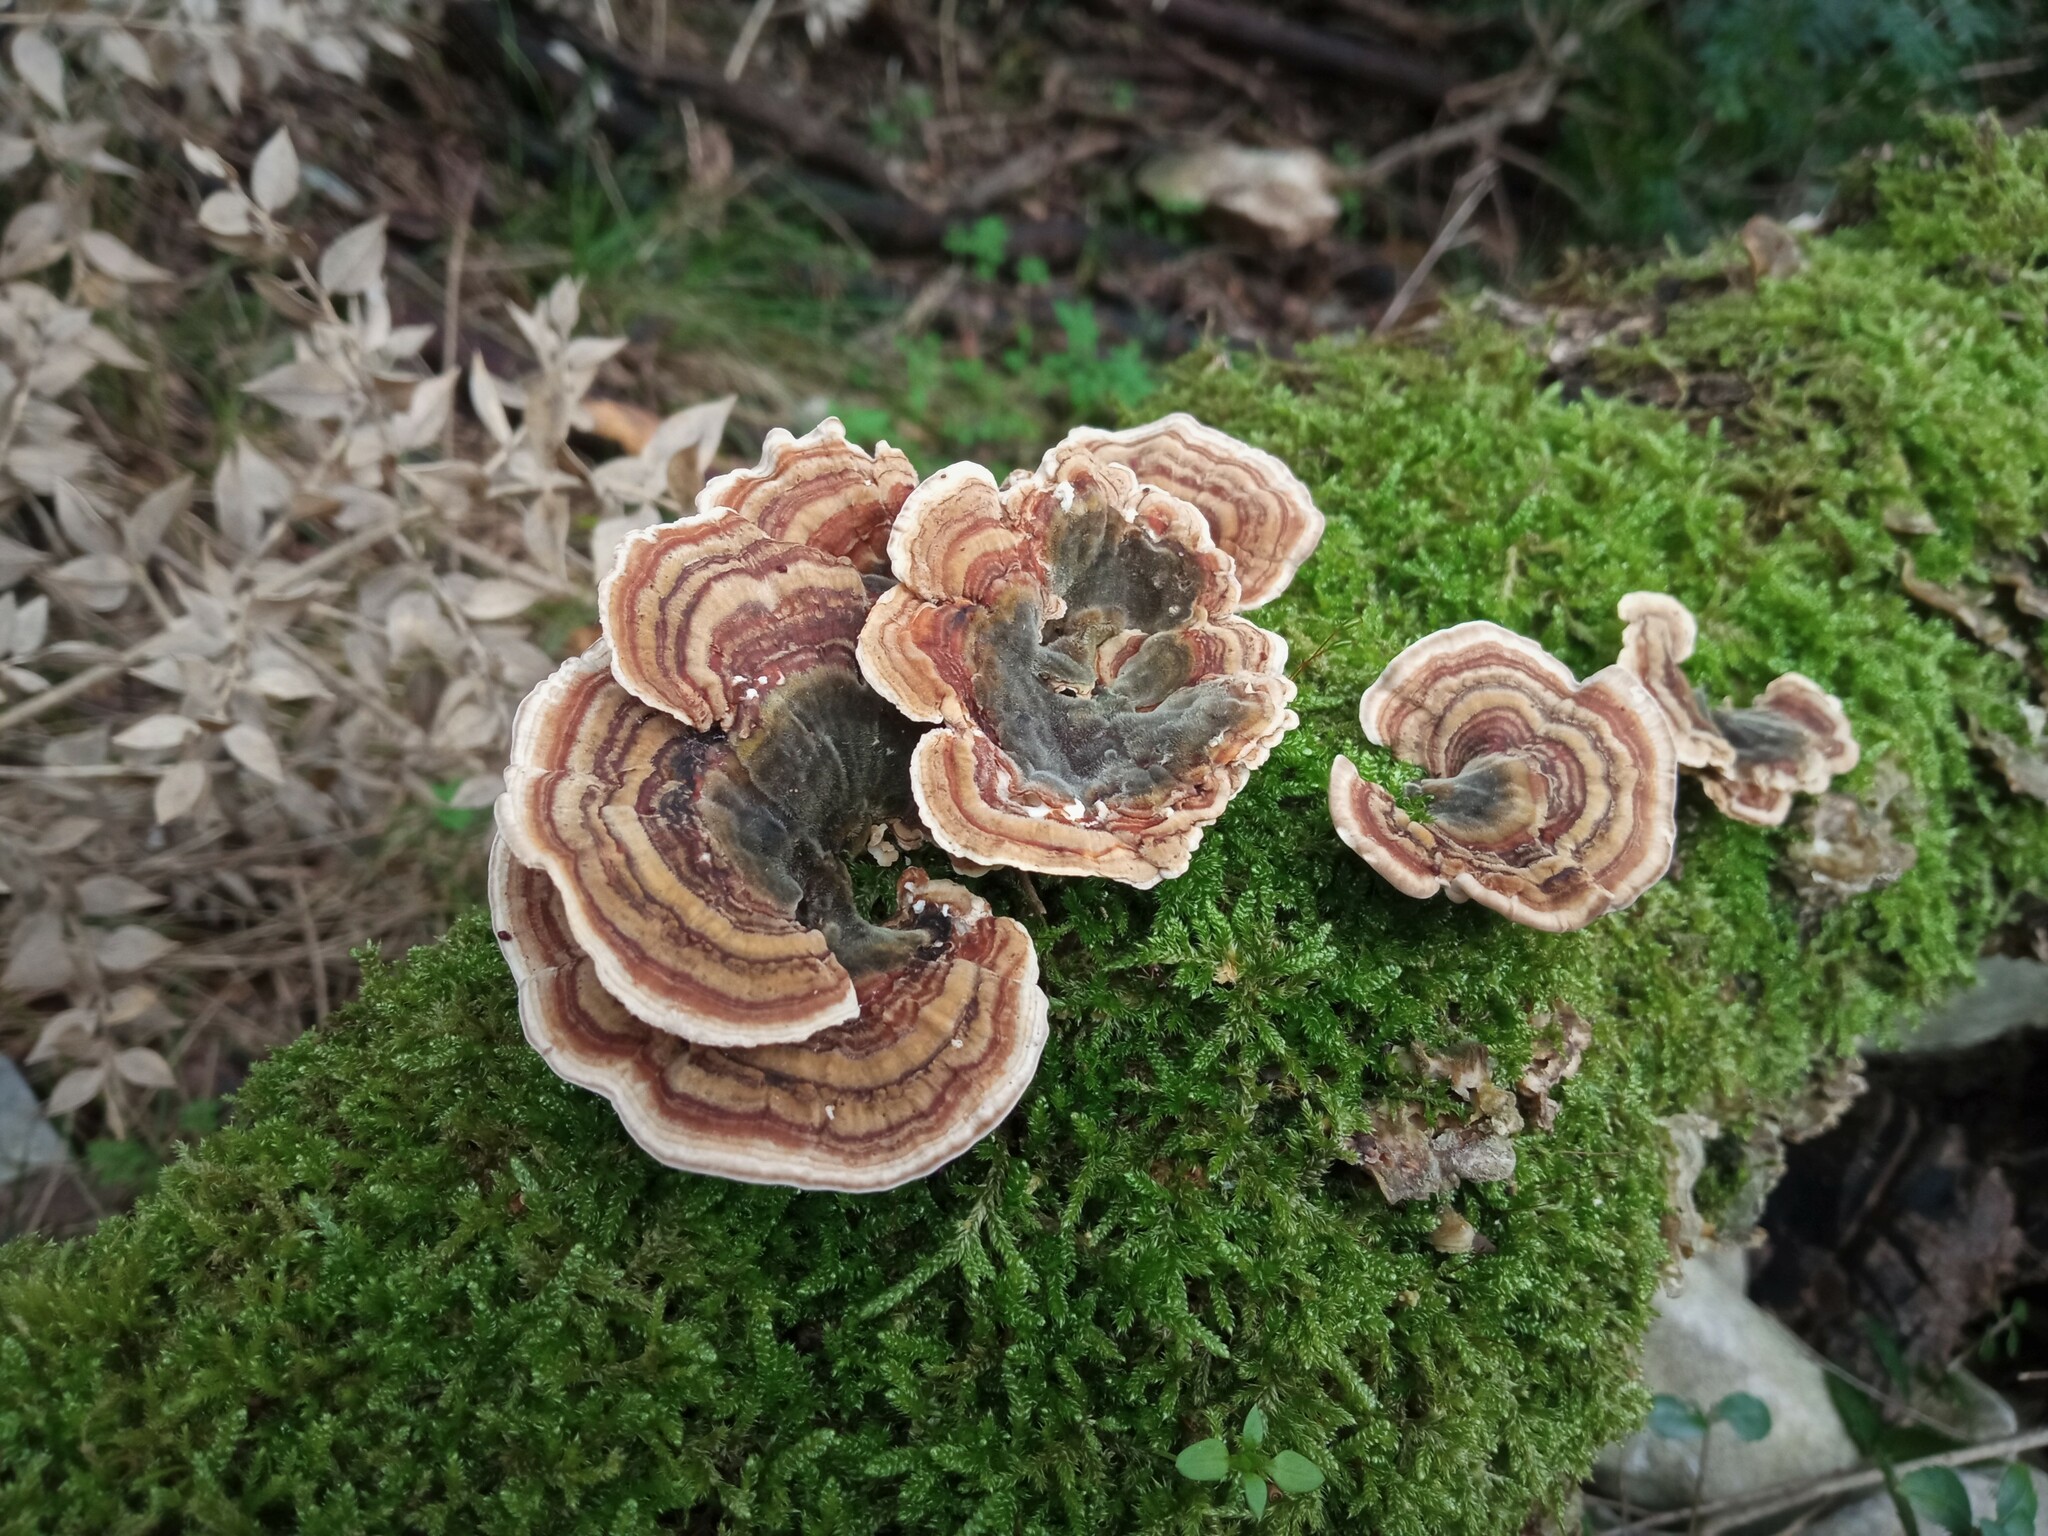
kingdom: Fungi
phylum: Basidiomycota
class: Agaricomycetes
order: Polyporales
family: Polyporaceae
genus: Trametes
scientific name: Trametes versicolor
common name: Turkeytail
